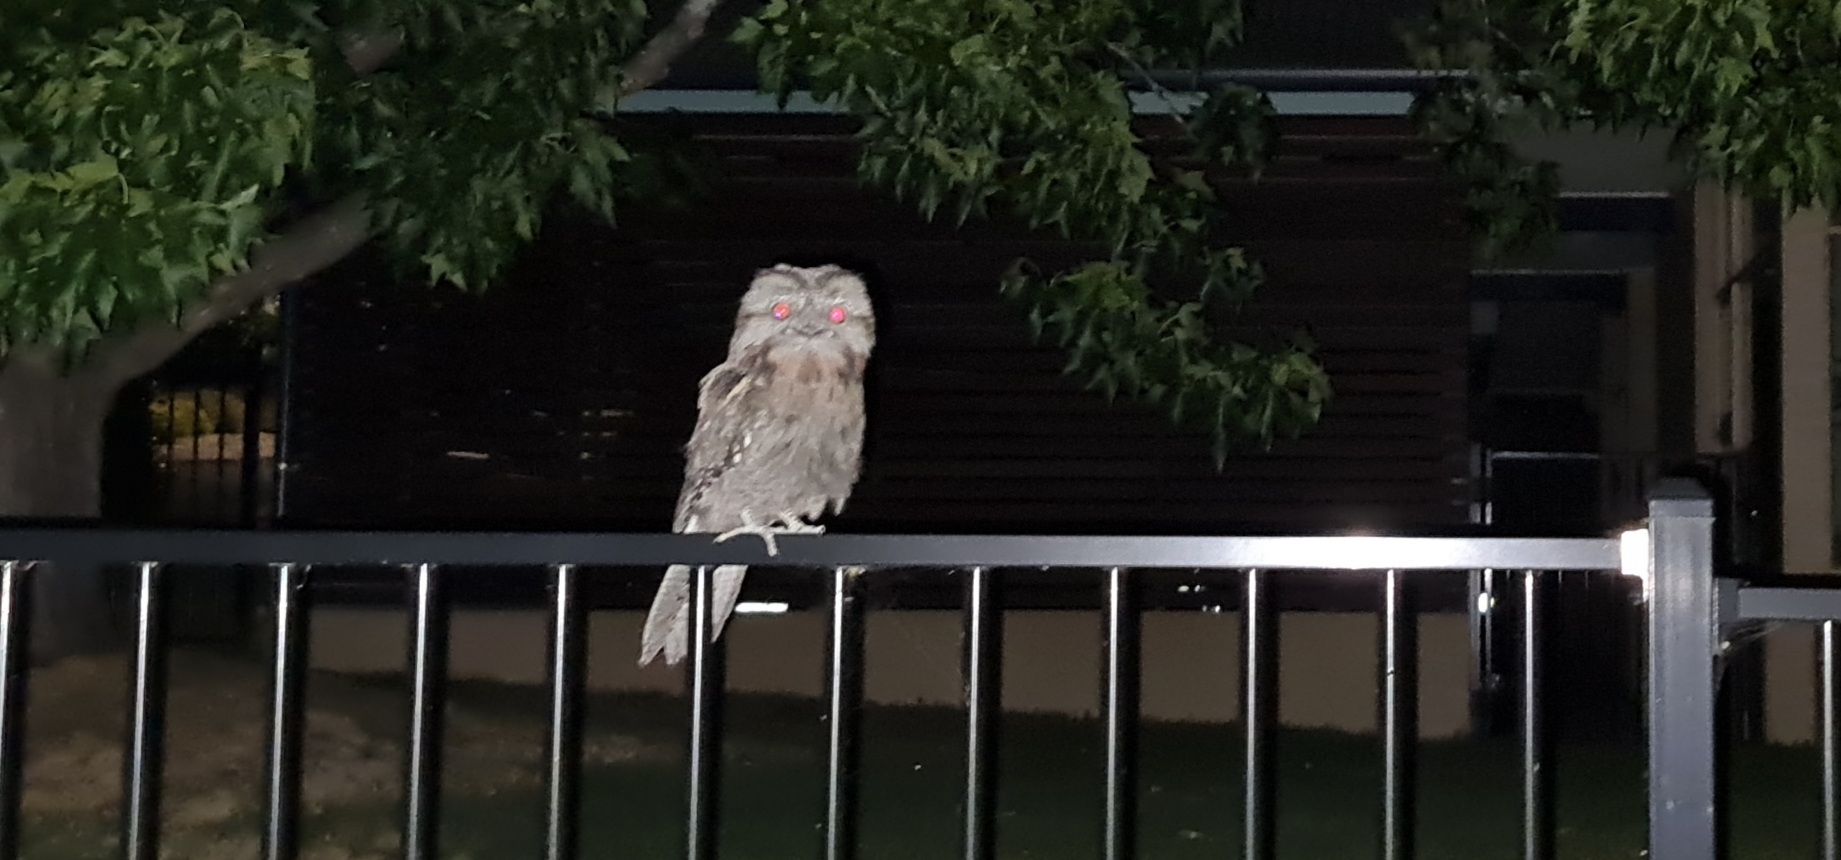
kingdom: Animalia
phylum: Chordata
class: Aves
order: Caprimulgiformes
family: Podargidae
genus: Podargus
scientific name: Podargus strigoides
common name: Tawny frogmouth
